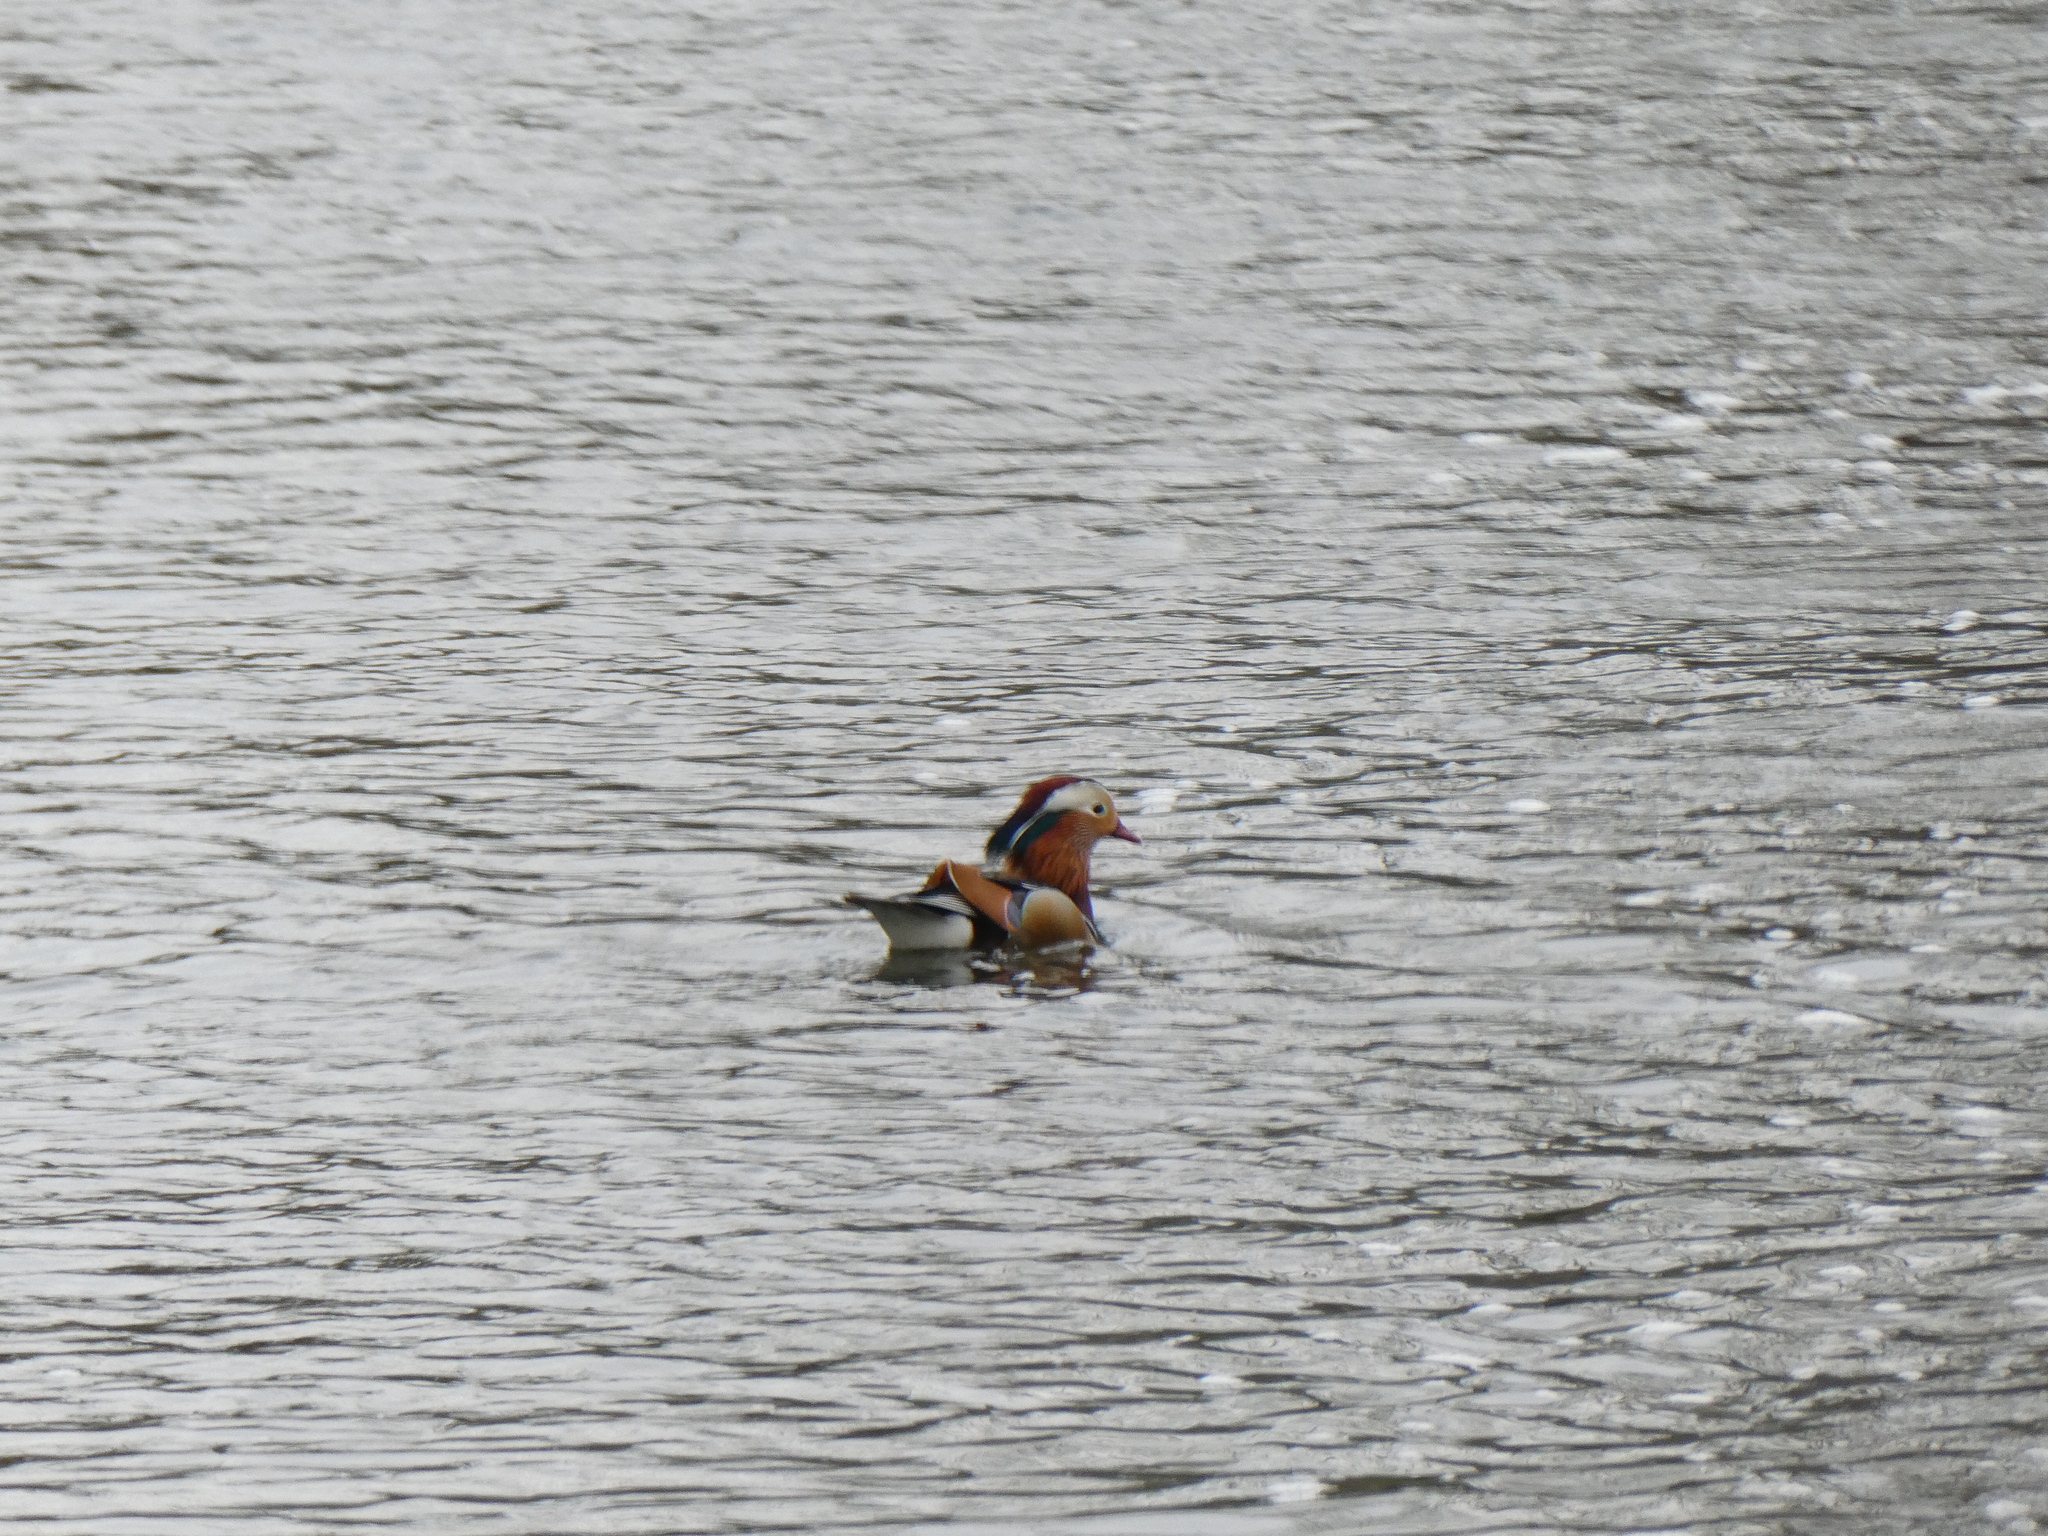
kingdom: Animalia
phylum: Chordata
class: Aves
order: Anseriformes
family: Anatidae
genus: Aix
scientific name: Aix galericulata
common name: Mandarin duck
